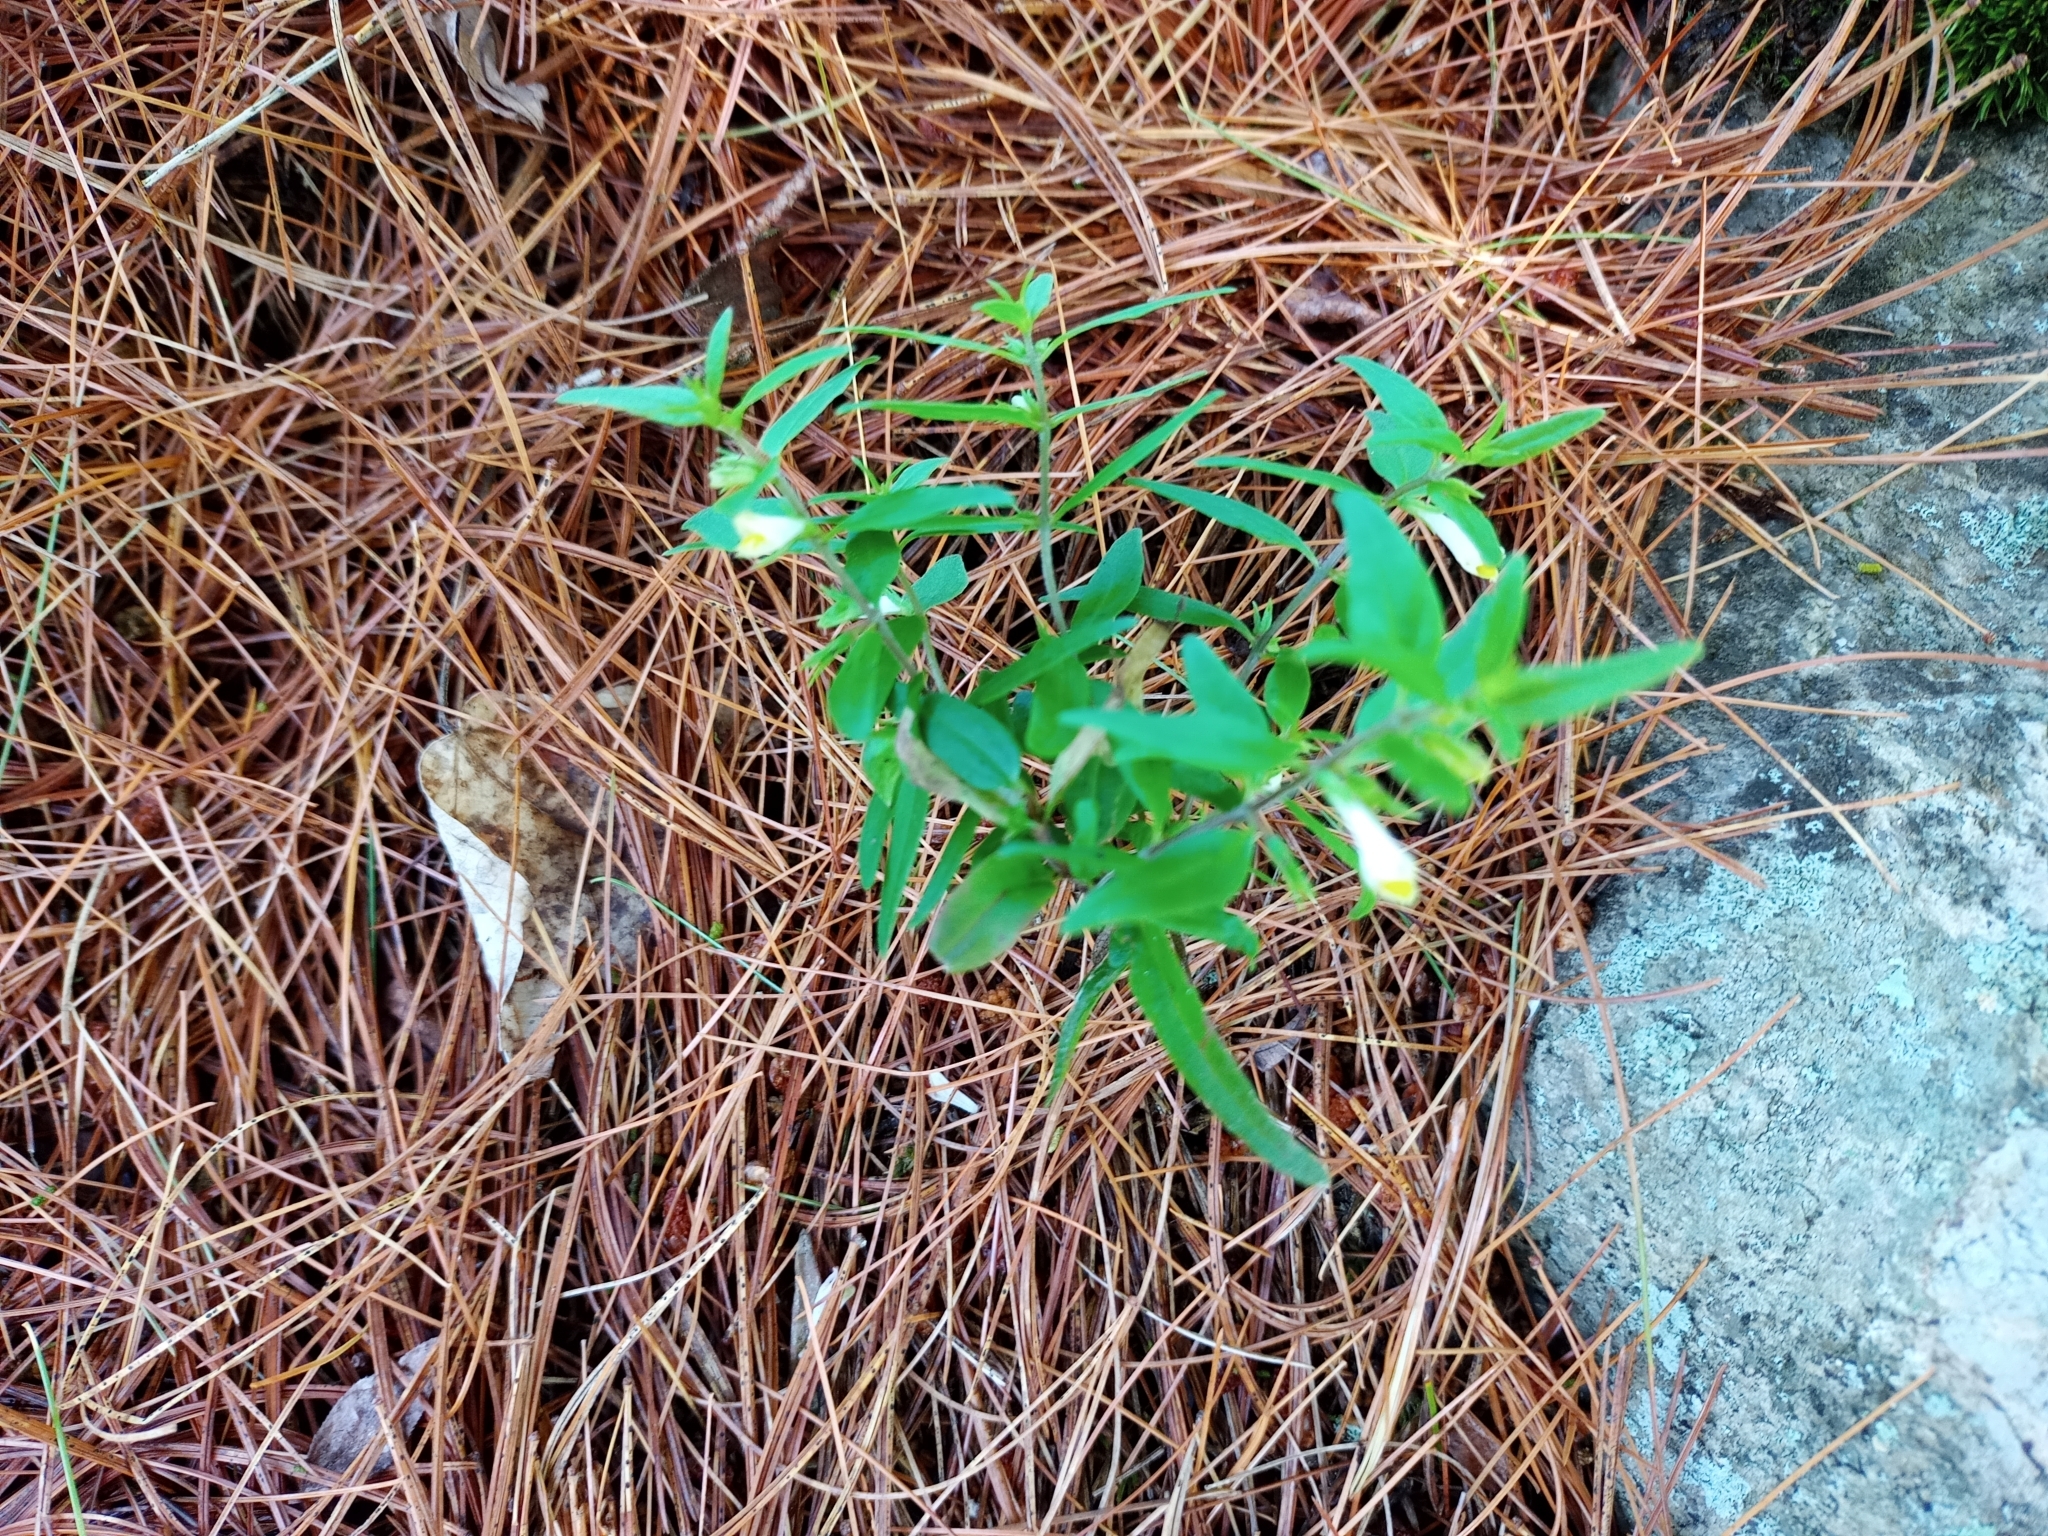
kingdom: Plantae
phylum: Tracheophyta
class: Magnoliopsida
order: Lamiales
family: Orobanchaceae
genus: Melampyrum
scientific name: Melampyrum lineare
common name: American cow-wheat
